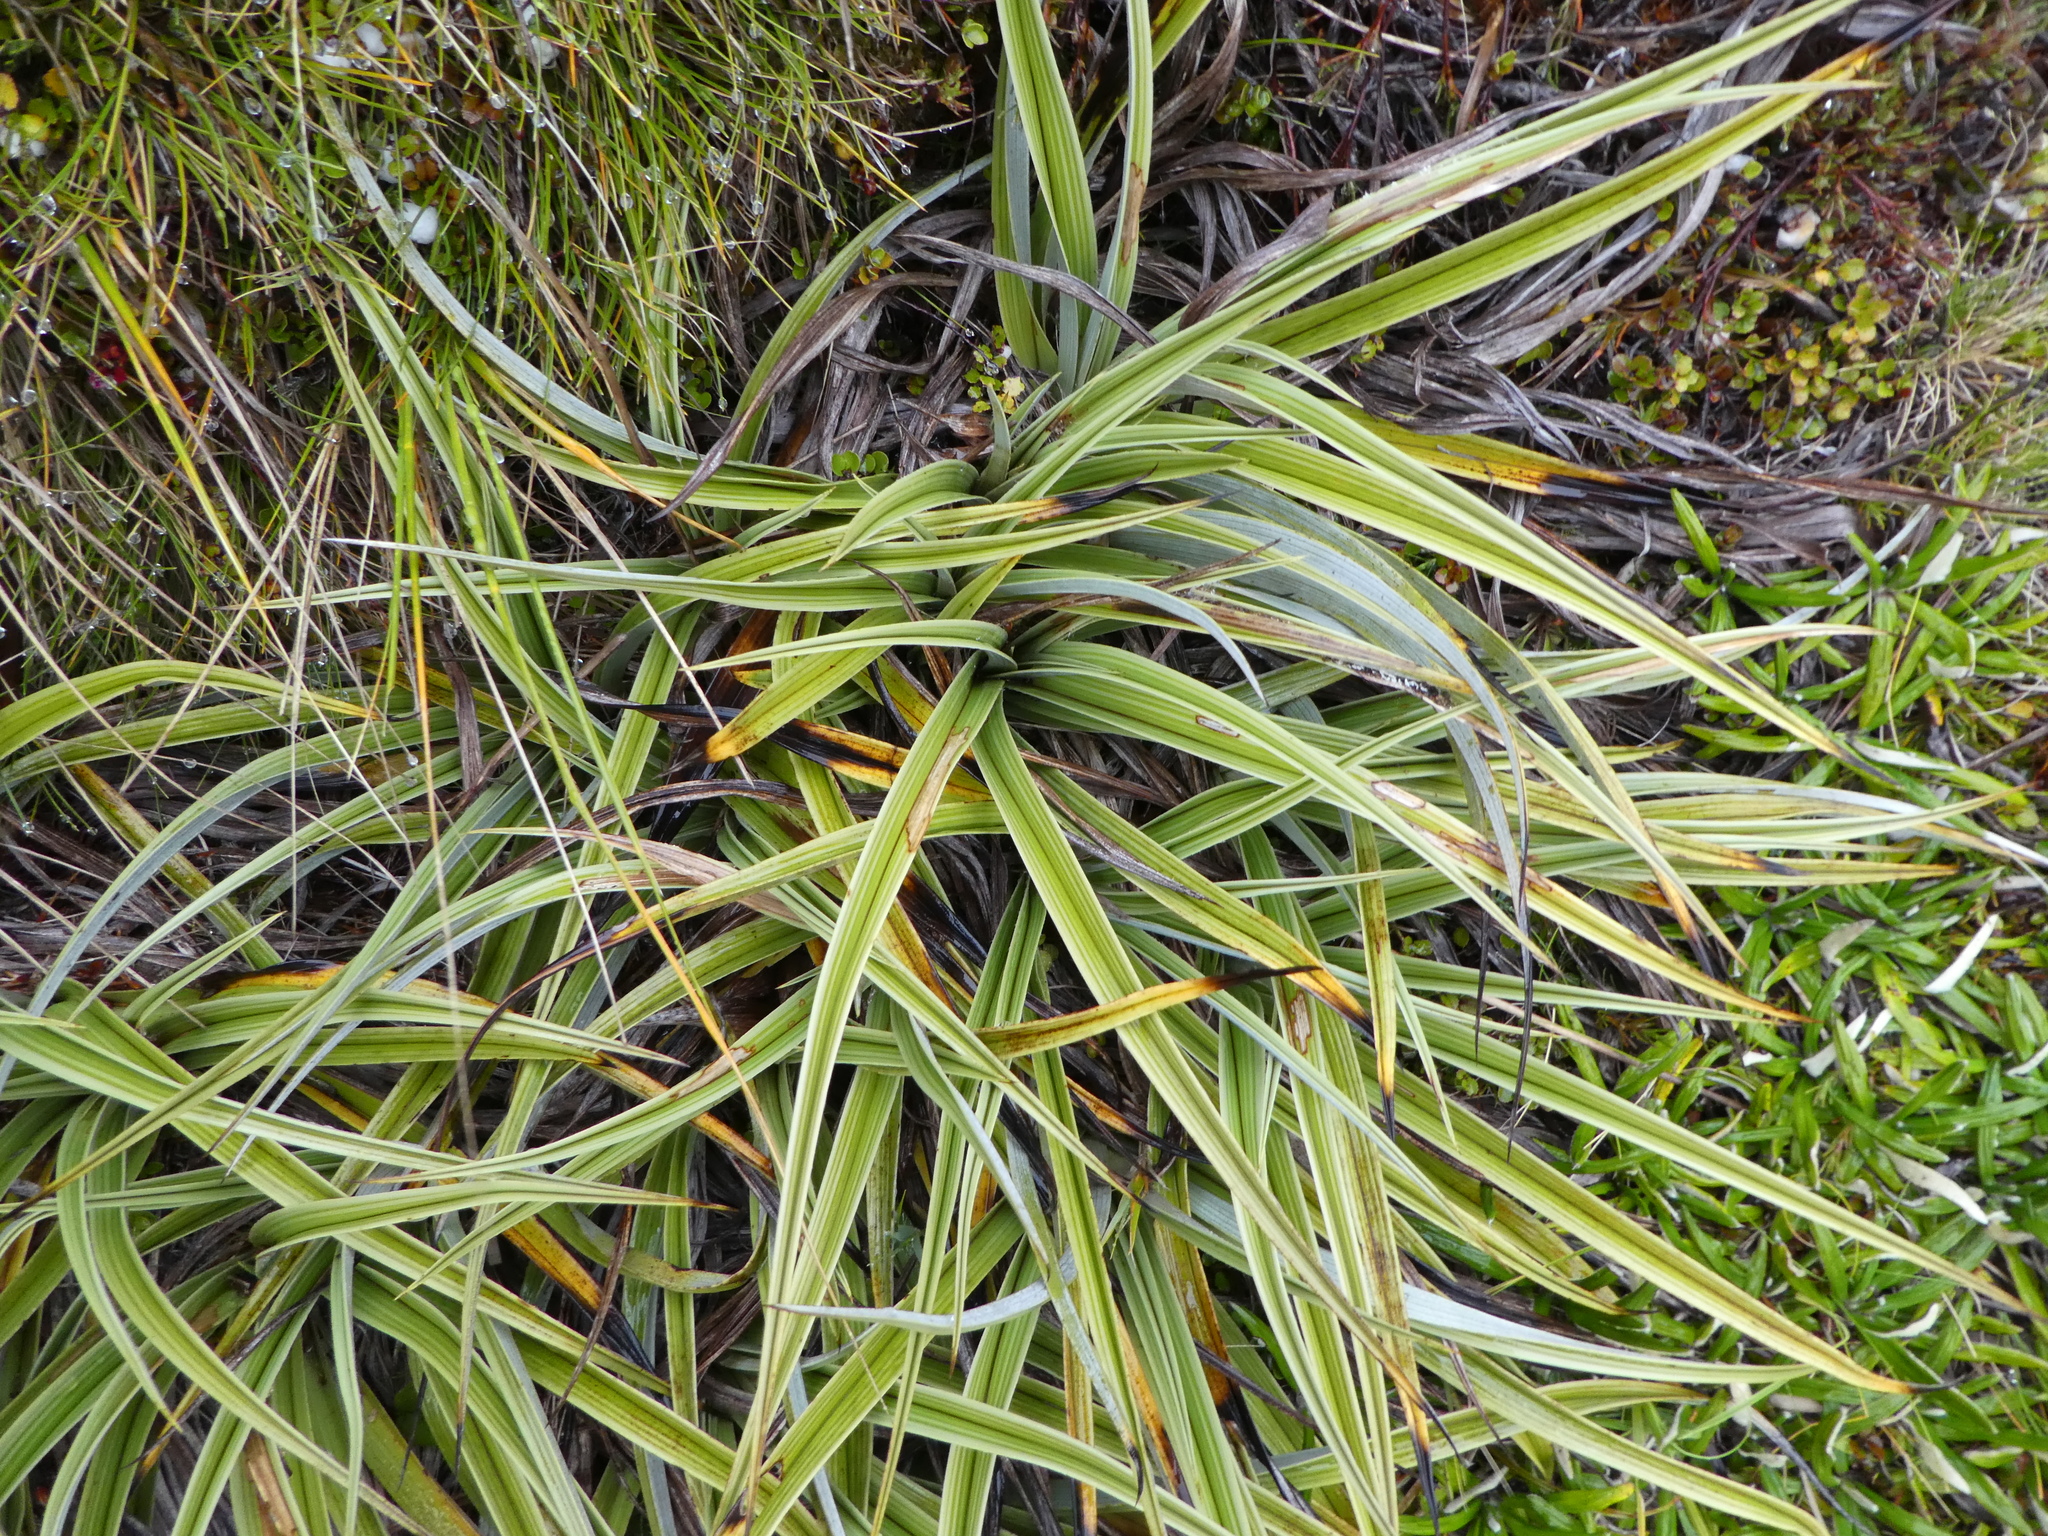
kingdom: Plantae
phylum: Tracheophyta
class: Liliopsida
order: Asparagales
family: Asteliaceae
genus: Astelia
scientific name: Astelia petriei
